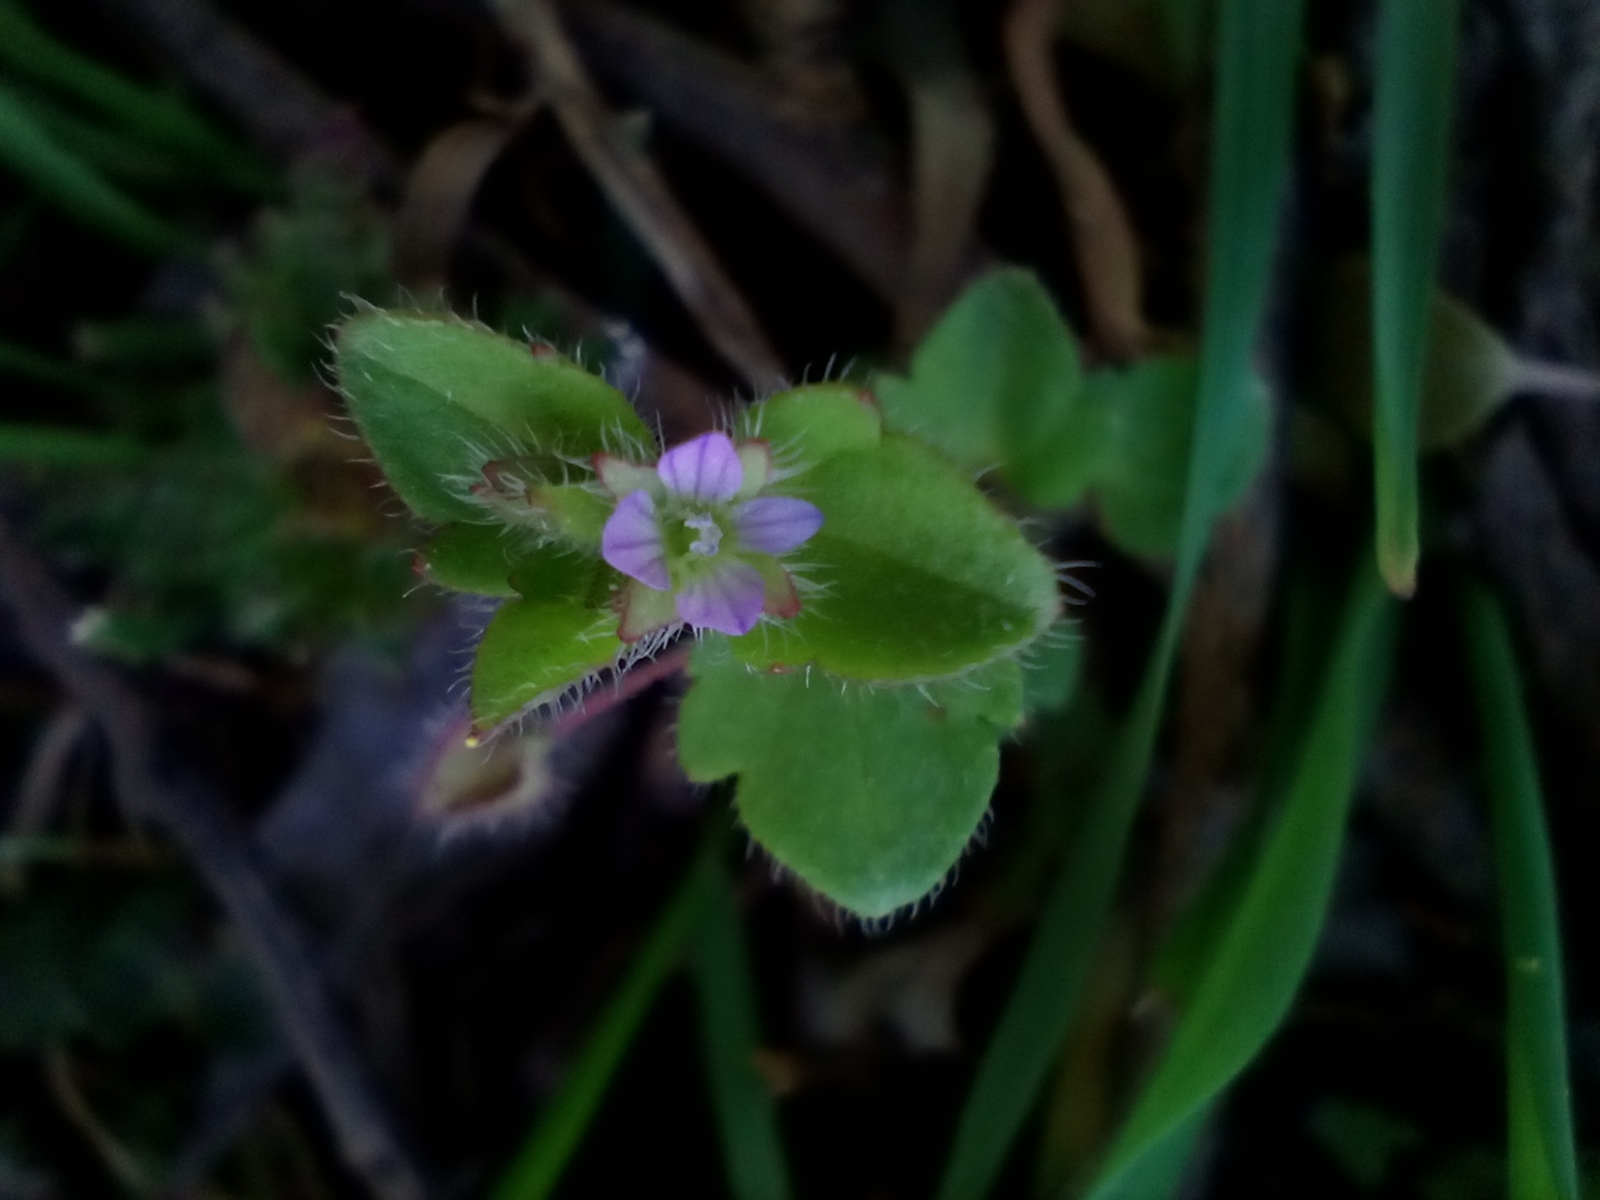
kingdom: Plantae
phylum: Tracheophyta
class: Magnoliopsida
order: Lamiales
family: Plantaginaceae
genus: Veronica
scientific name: Veronica sublobata
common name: False ivy-leaved speedwell
